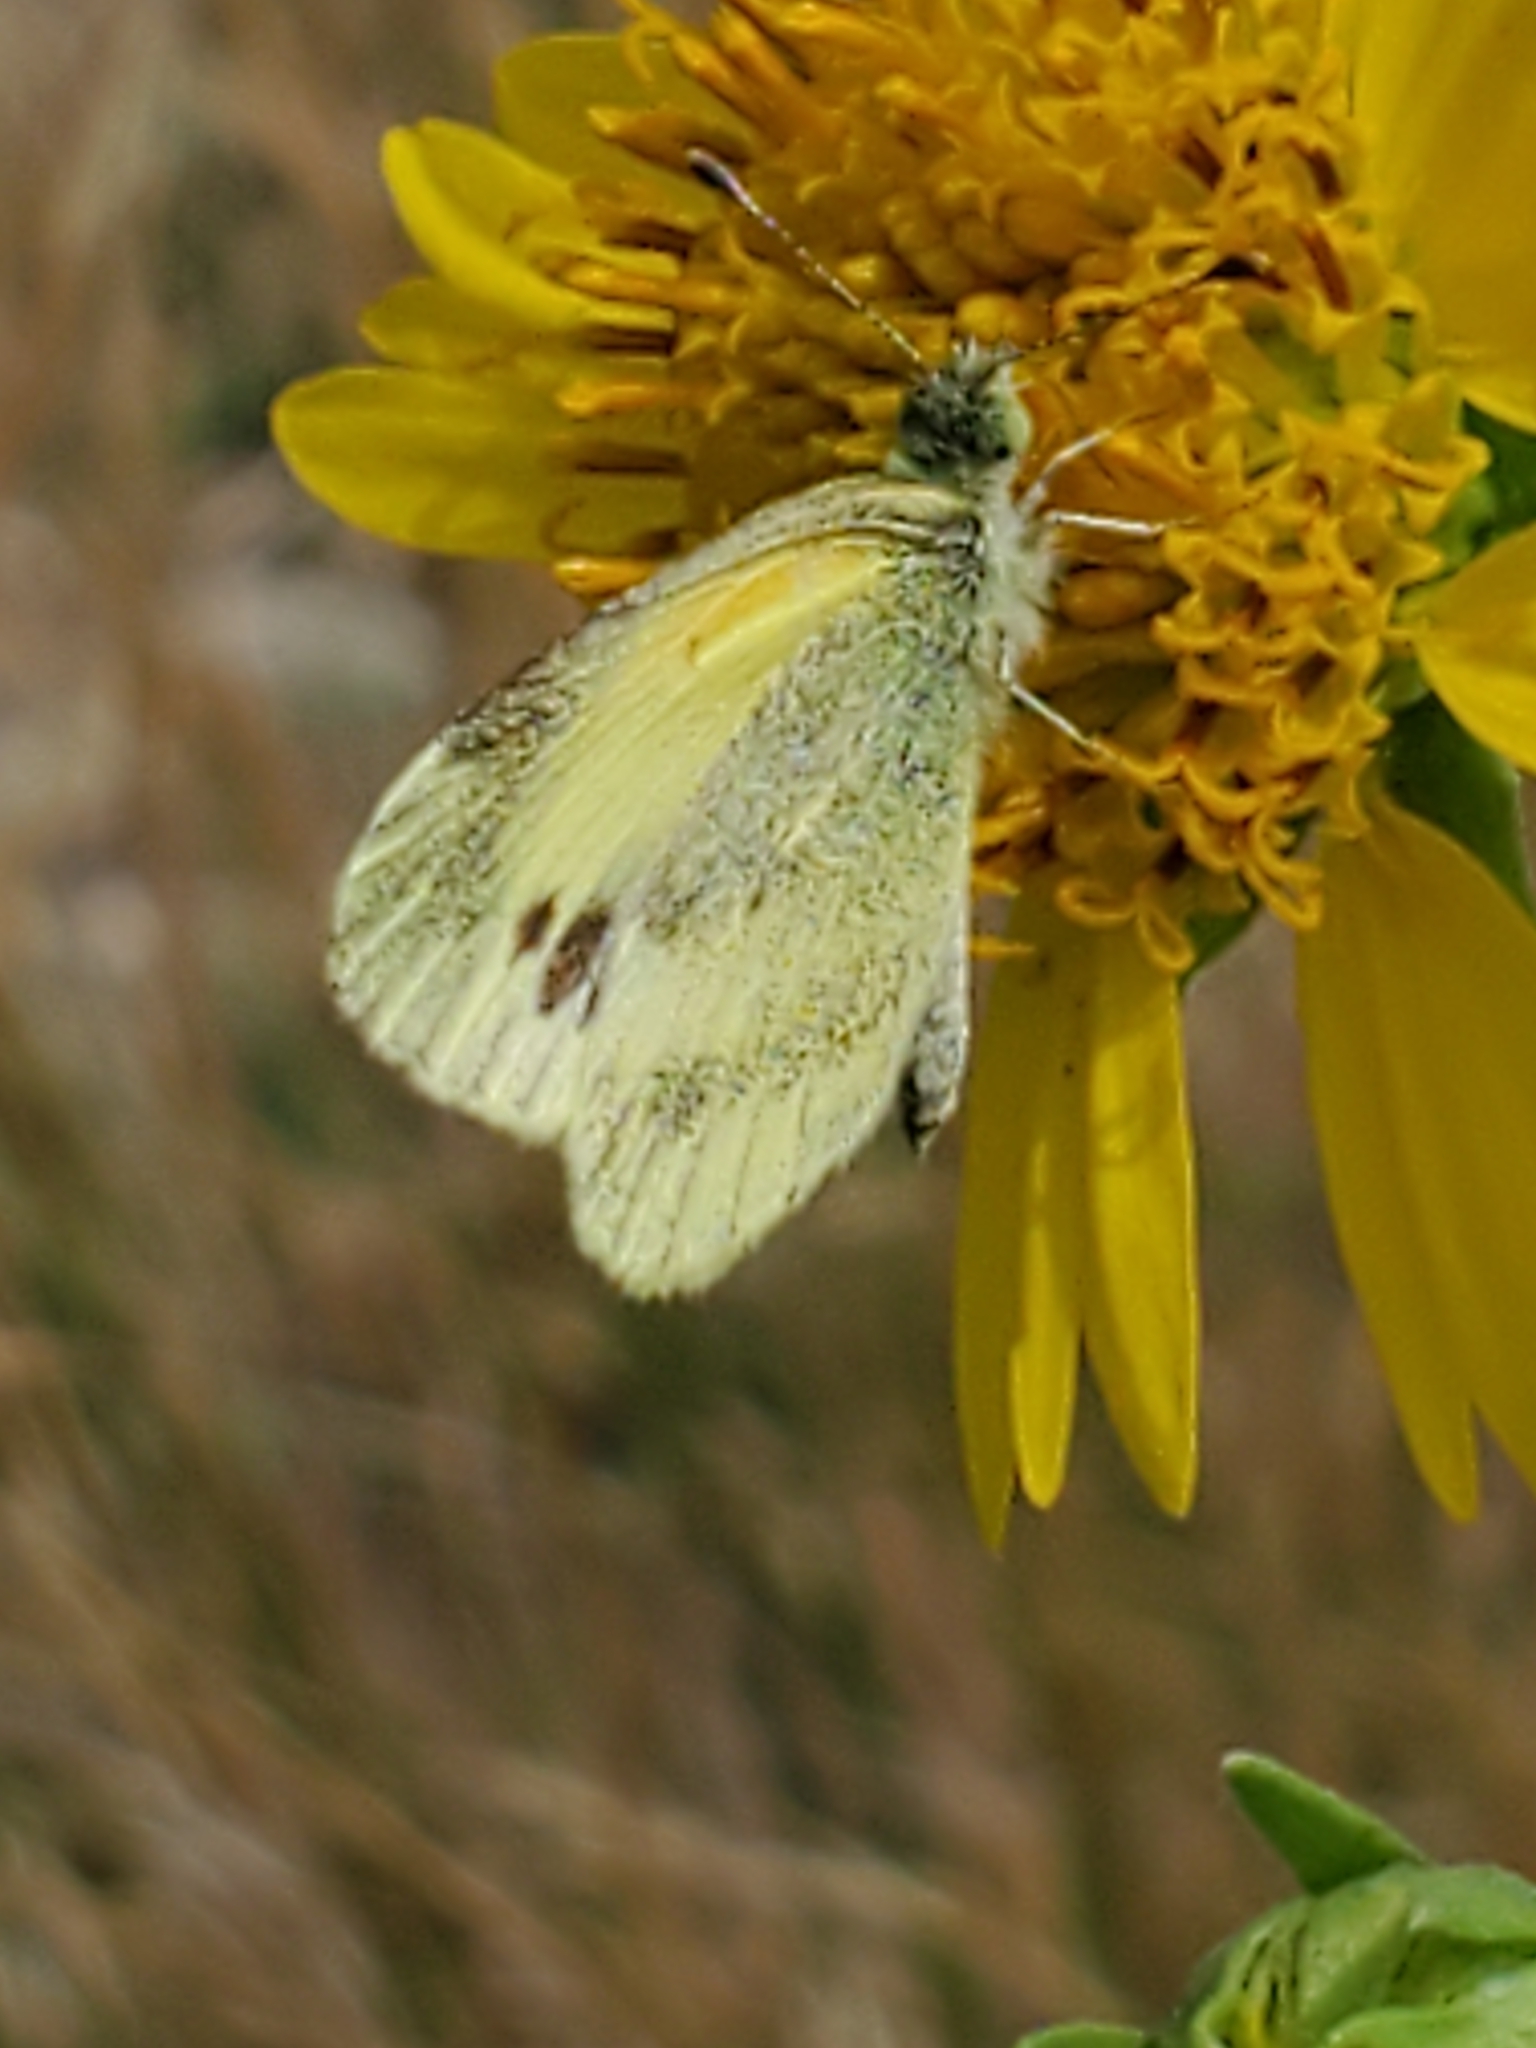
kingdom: Animalia
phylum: Arthropoda
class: Insecta
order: Lepidoptera
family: Pieridae
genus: Nathalis
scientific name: Nathalis iole
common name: Dainty sulphur
